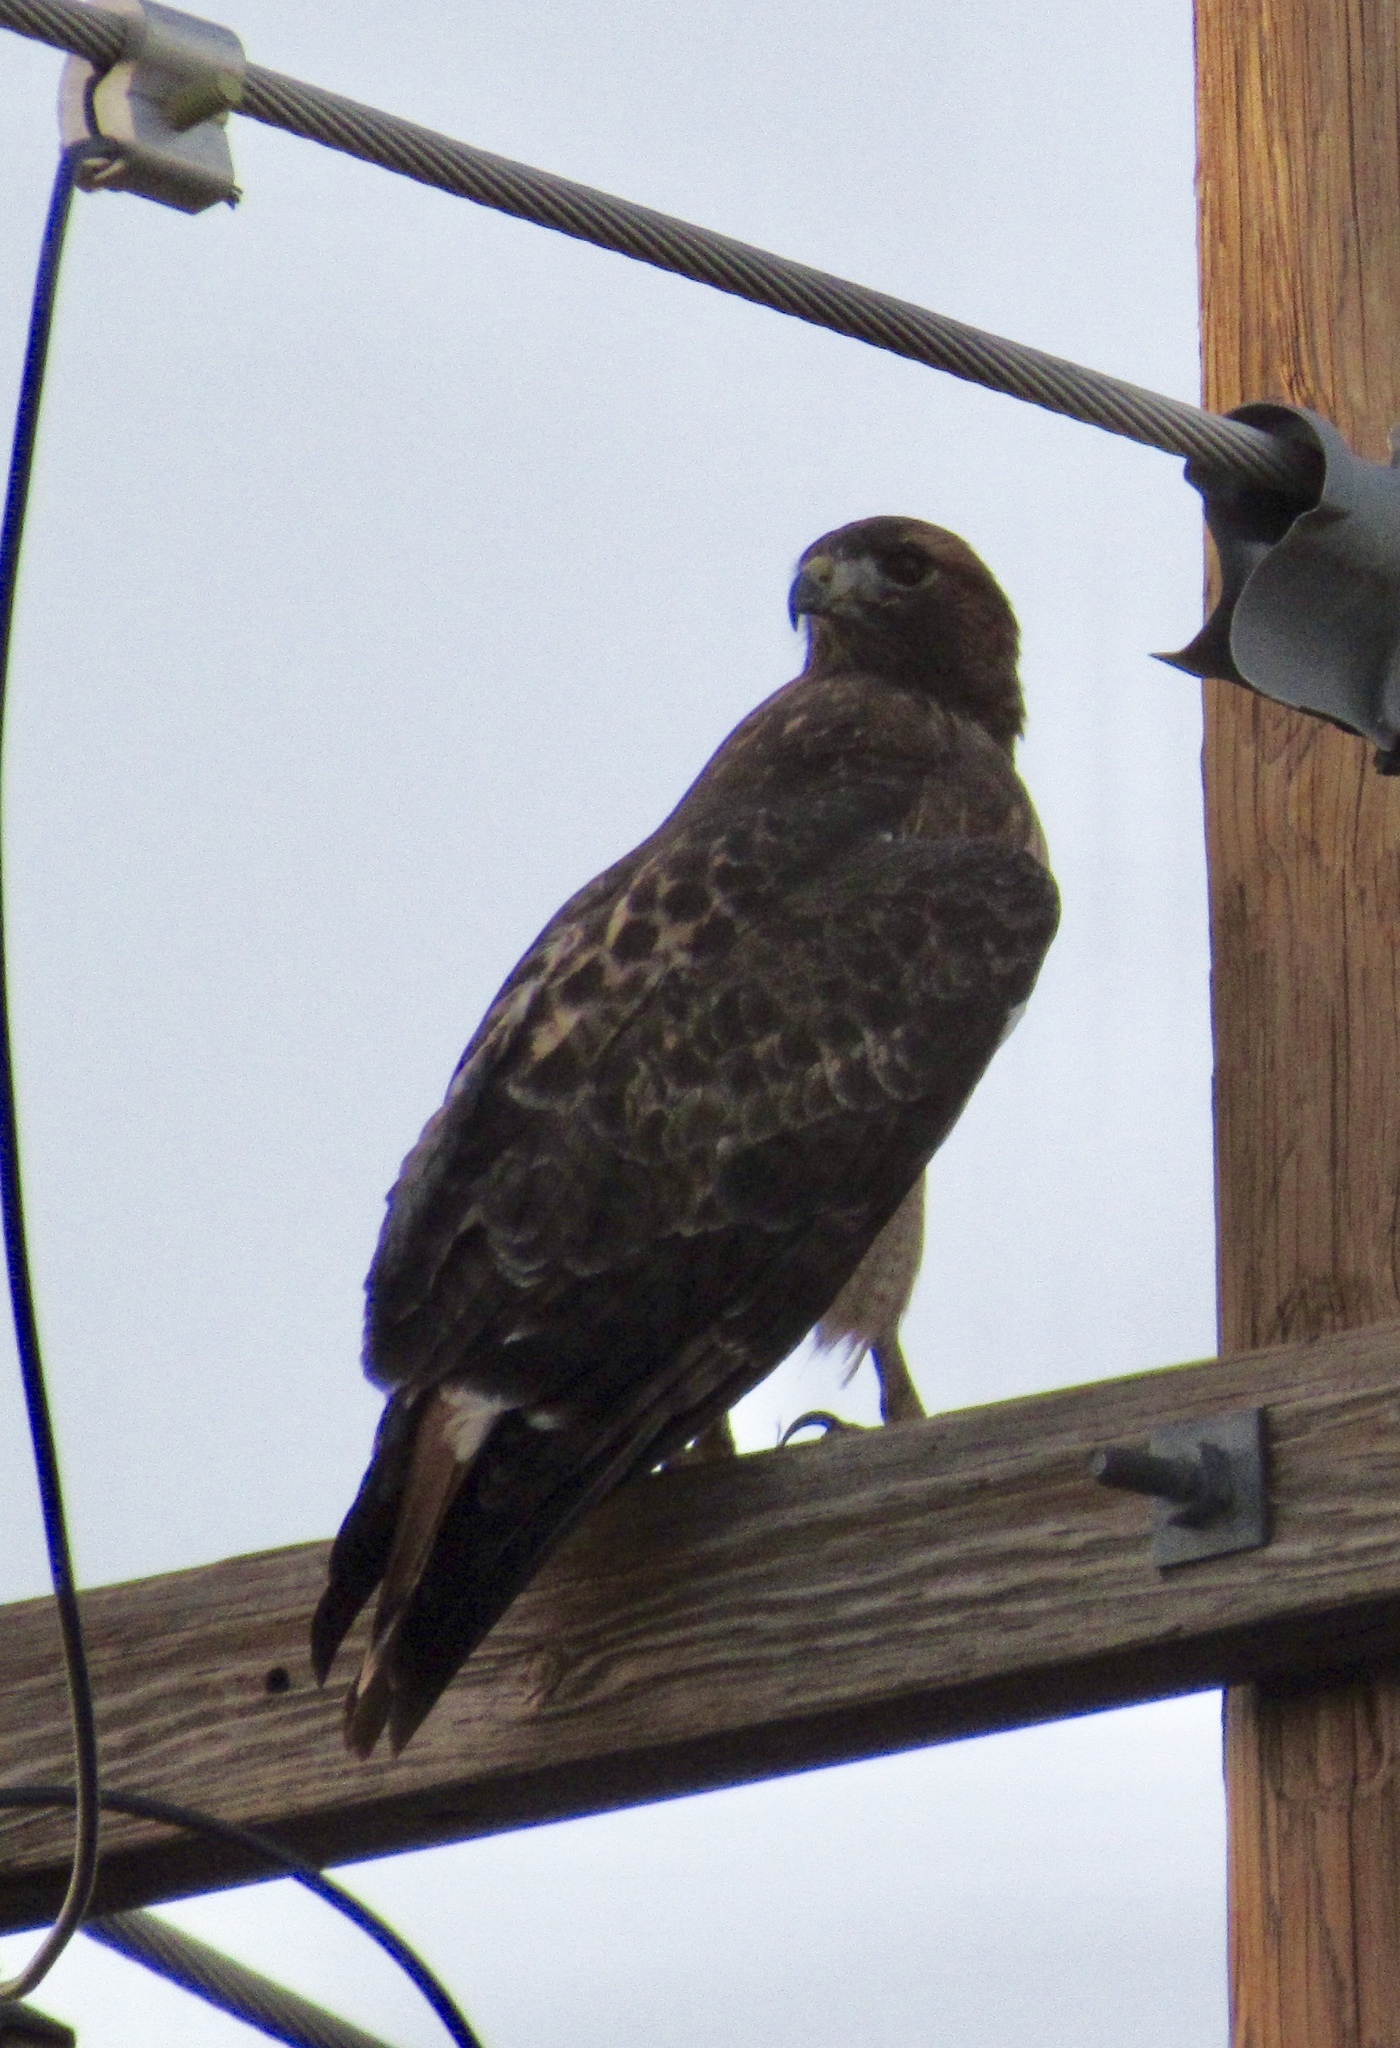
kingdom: Animalia
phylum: Chordata
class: Aves
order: Accipitriformes
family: Accipitridae
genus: Buteo
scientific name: Buteo jamaicensis
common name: Red-tailed hawk
